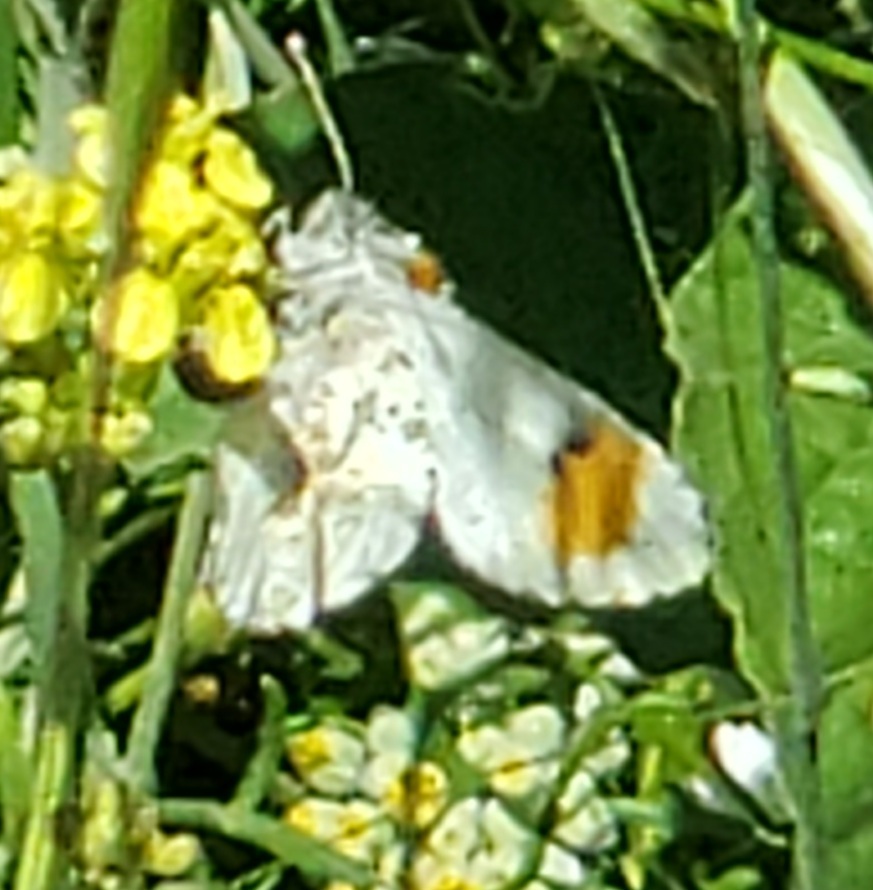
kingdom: Animalia
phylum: Arthropoda
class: Insecta
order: Lepidoptera
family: Pieridae
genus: Anthocharis
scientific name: Anthocharis sara
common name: Sara's orangetip
